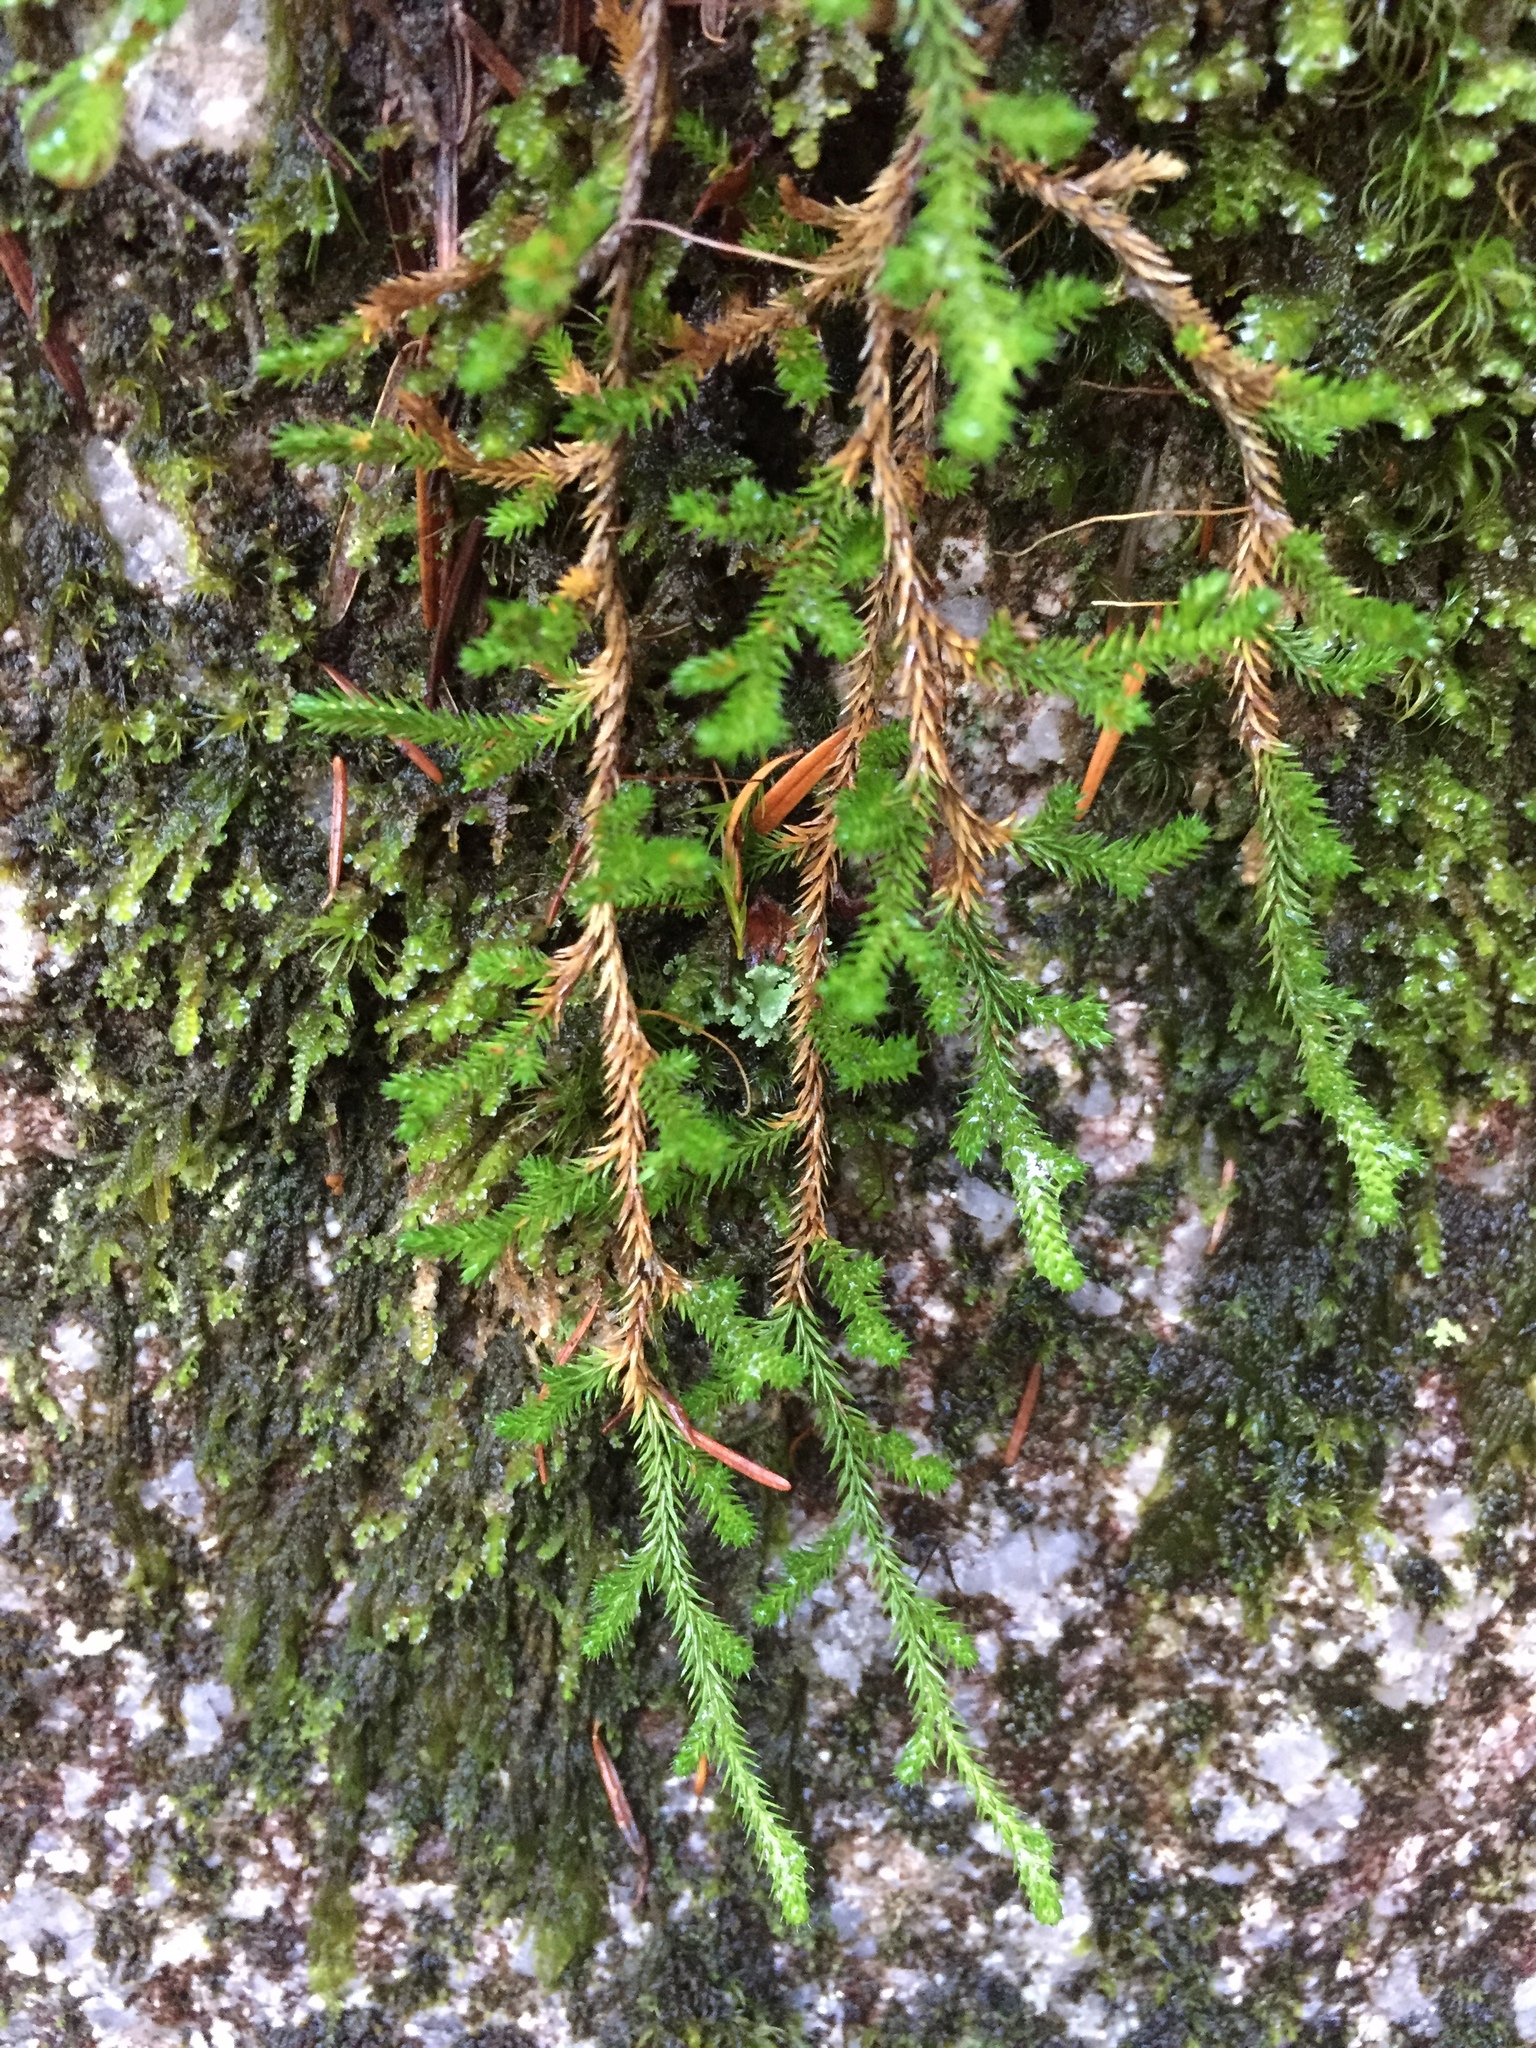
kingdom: Plantae
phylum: Tracheophyta
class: Lycopodiopsida
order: Selaginellales
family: Selaginellaceae
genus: Selaginella
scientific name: Selaginella wallacei
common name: Wallace's selaginella
